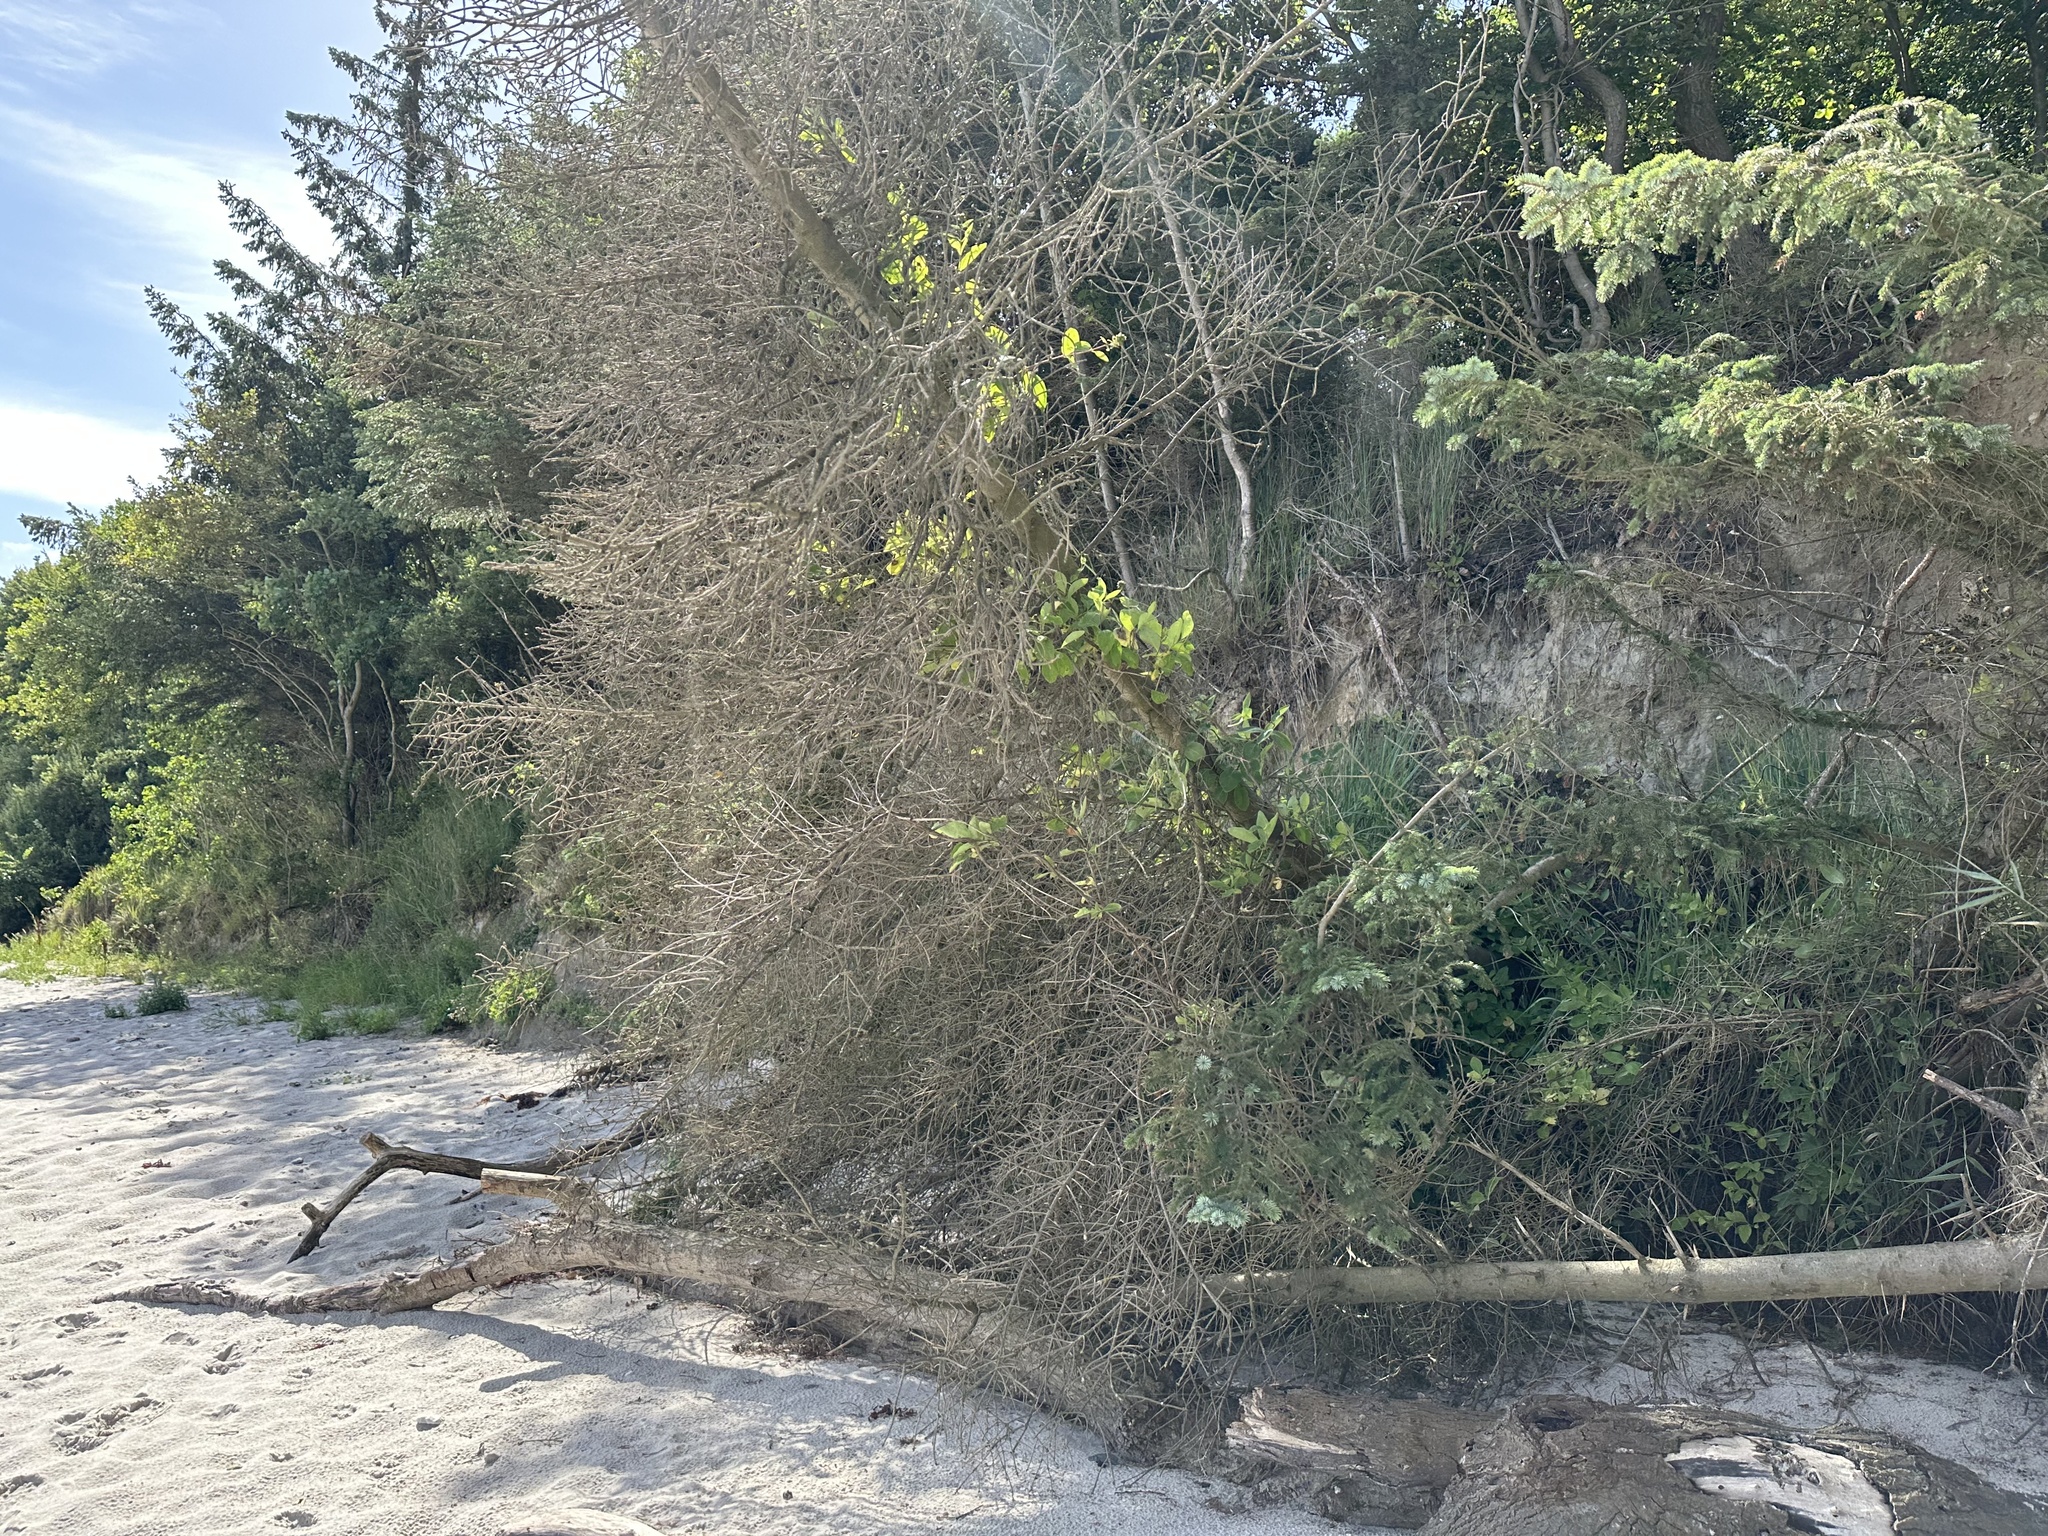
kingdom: Plantae
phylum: Tracheophyta
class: Pinopsida
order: Pinales
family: Pinaceae
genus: Picea
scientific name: Picea sitchensis
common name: Sitka spruce
